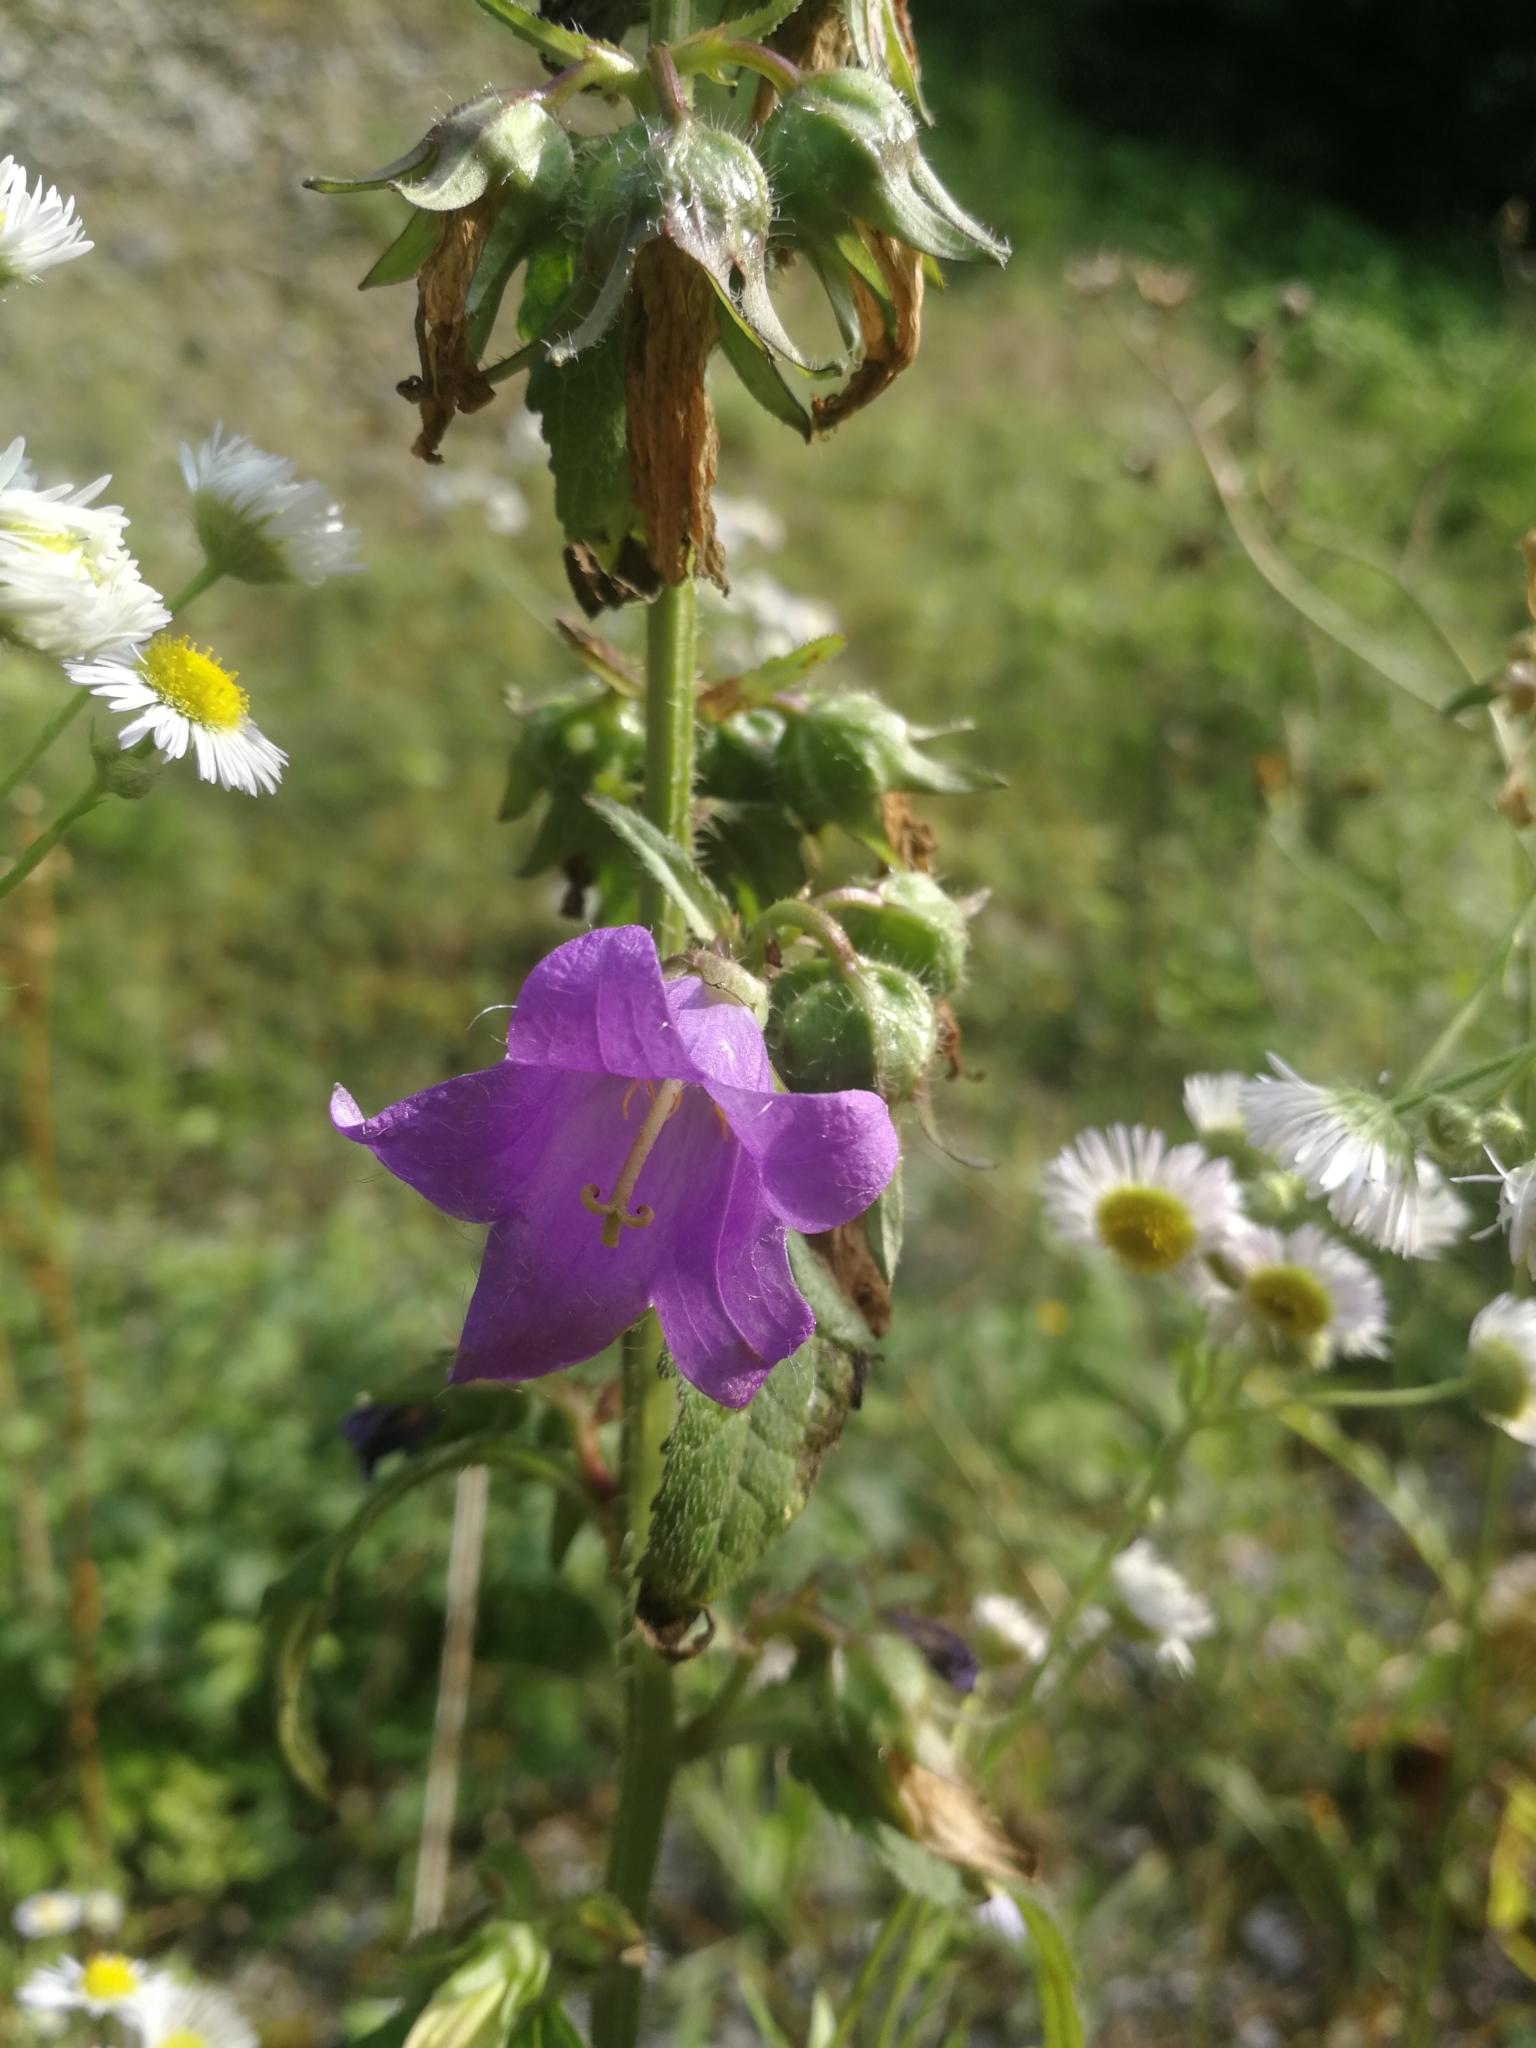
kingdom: Plantae
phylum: Tracheophyta
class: Magnoliopsida
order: Asterales
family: Campanulaceae
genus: Campanula
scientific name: Campanula trachelium
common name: Nettle-leaved bellflower
